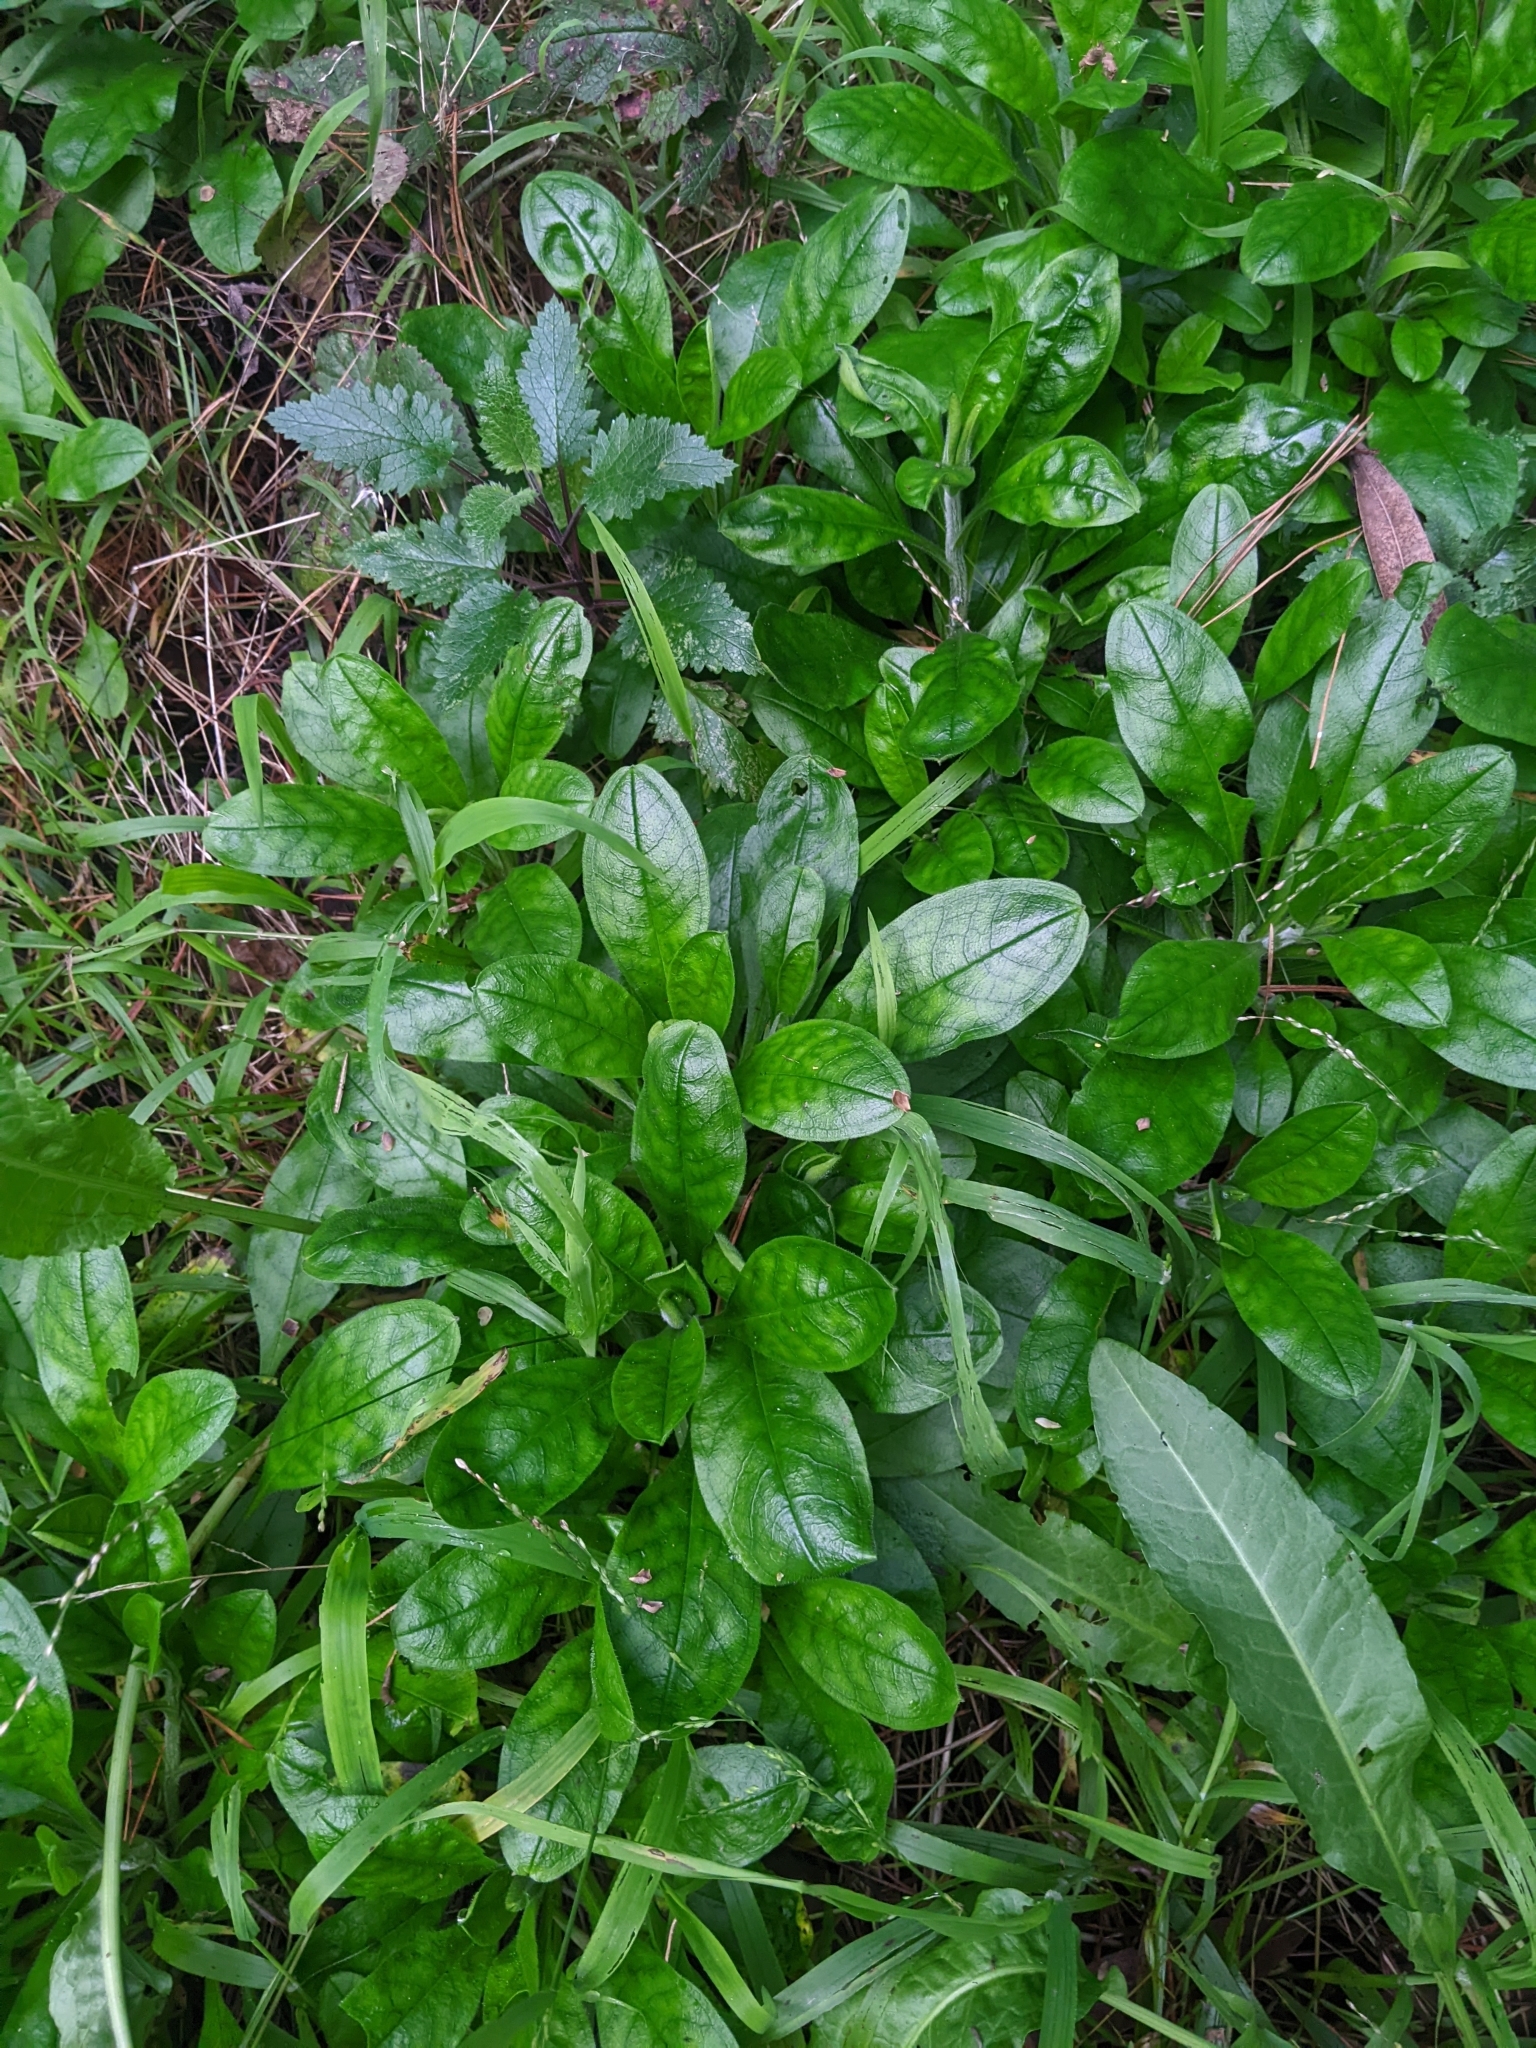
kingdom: Plantae
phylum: Tracheophyta
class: Magnoliopsida
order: Boraginales
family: Boraginaceae
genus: Myosotis
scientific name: Myosotis latifolia
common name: Broadleaf forget-me-not
